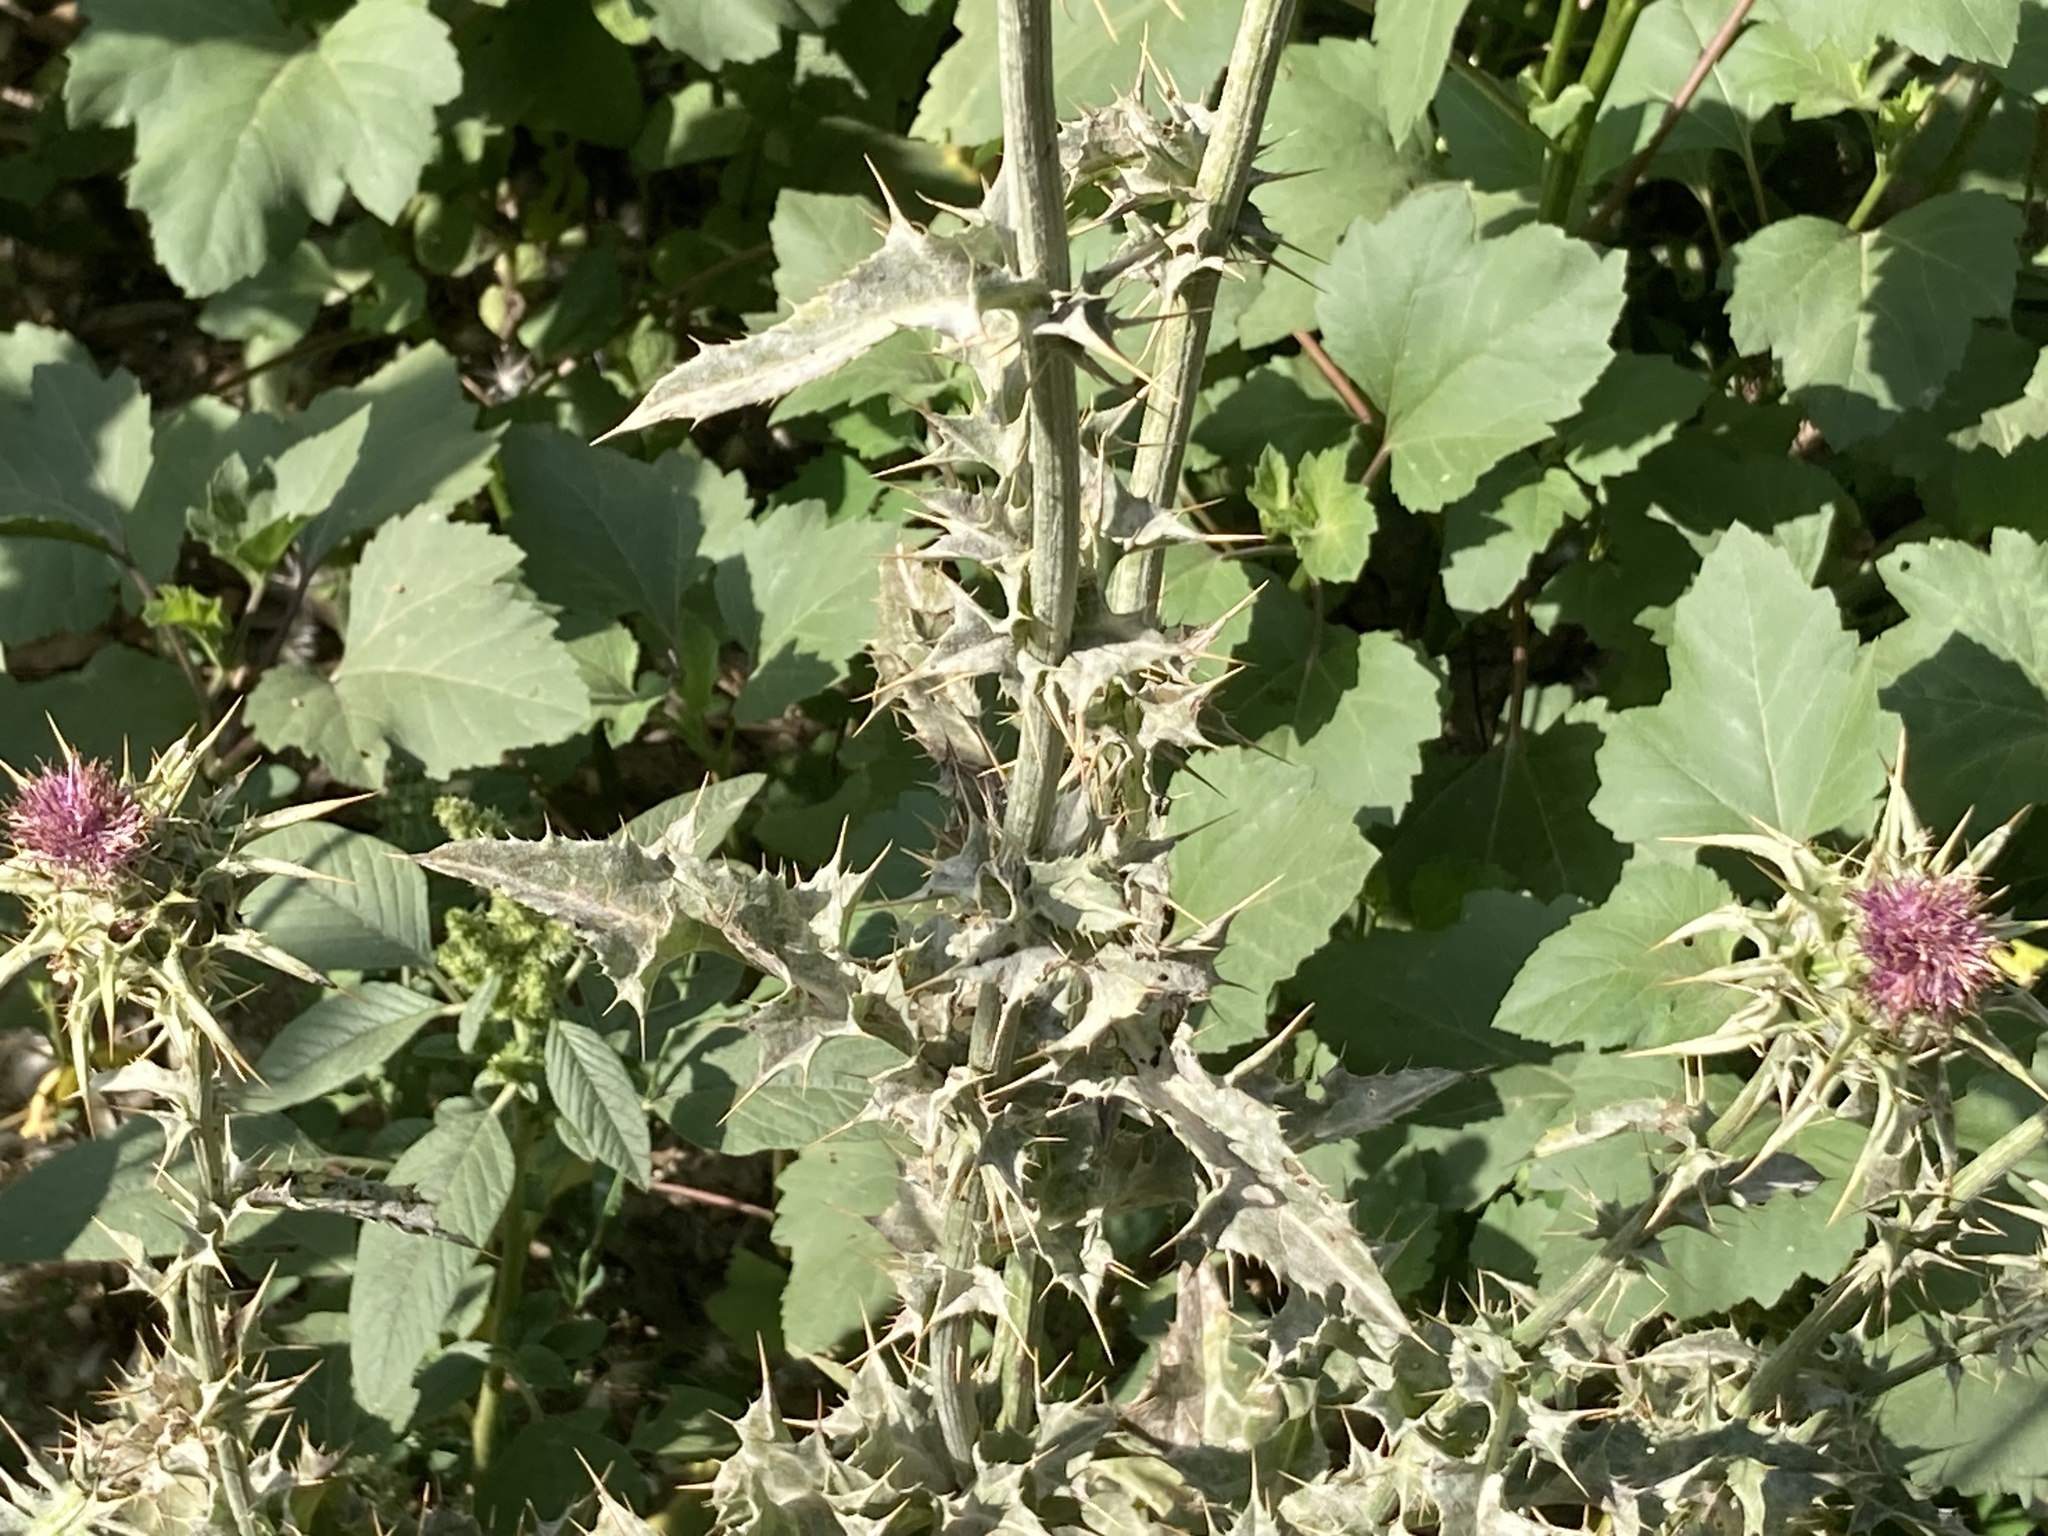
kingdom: Plantae
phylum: Tracheophyta
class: Magnoliopsida
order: Asterales
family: Asteraceae
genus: Silybum
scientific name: Silybum marianum
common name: Milk thistle
